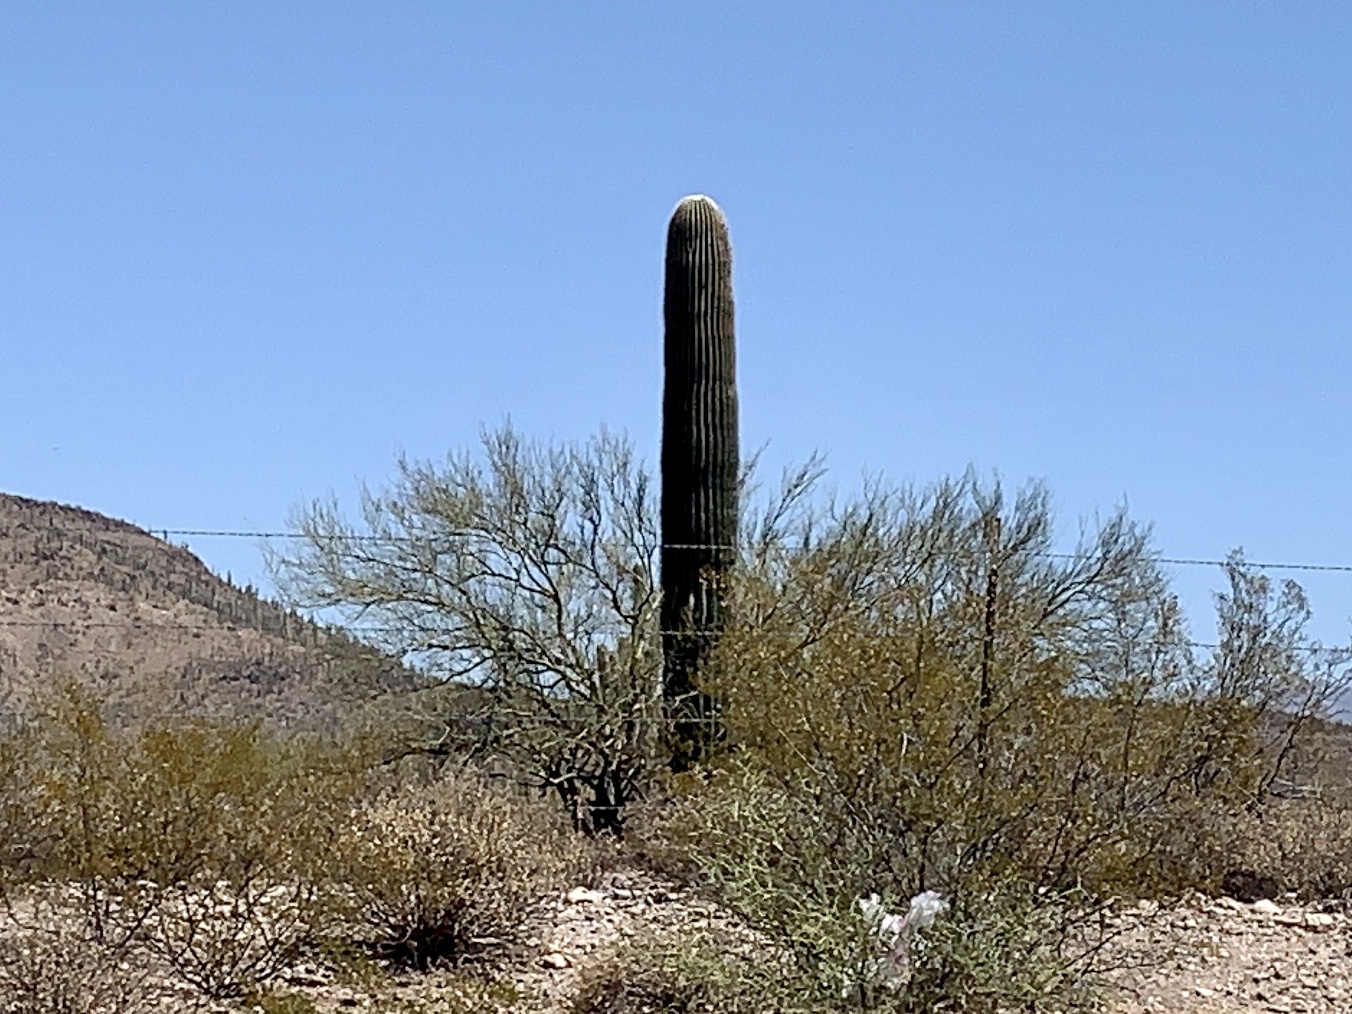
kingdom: Plantae
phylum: Tracheophyta
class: Magnoliopsida
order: Caryophyllales
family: Cactaceae
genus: Carnegiea
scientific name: Carnegiea gigantea
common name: Saguaro
